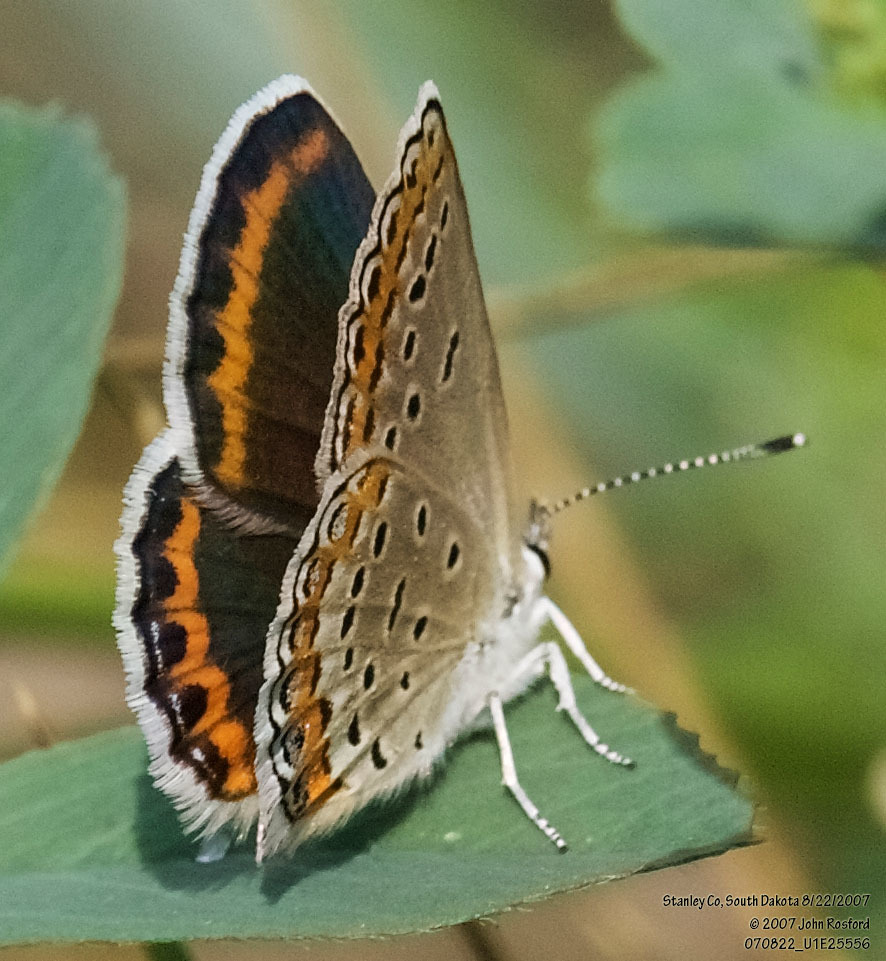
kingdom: Animalia
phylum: Arthropoda
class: Insecta
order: Lepidoptera
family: Lycaenidae
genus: Lycaeides
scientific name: Lycaeides melissa
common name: Melissa blue
